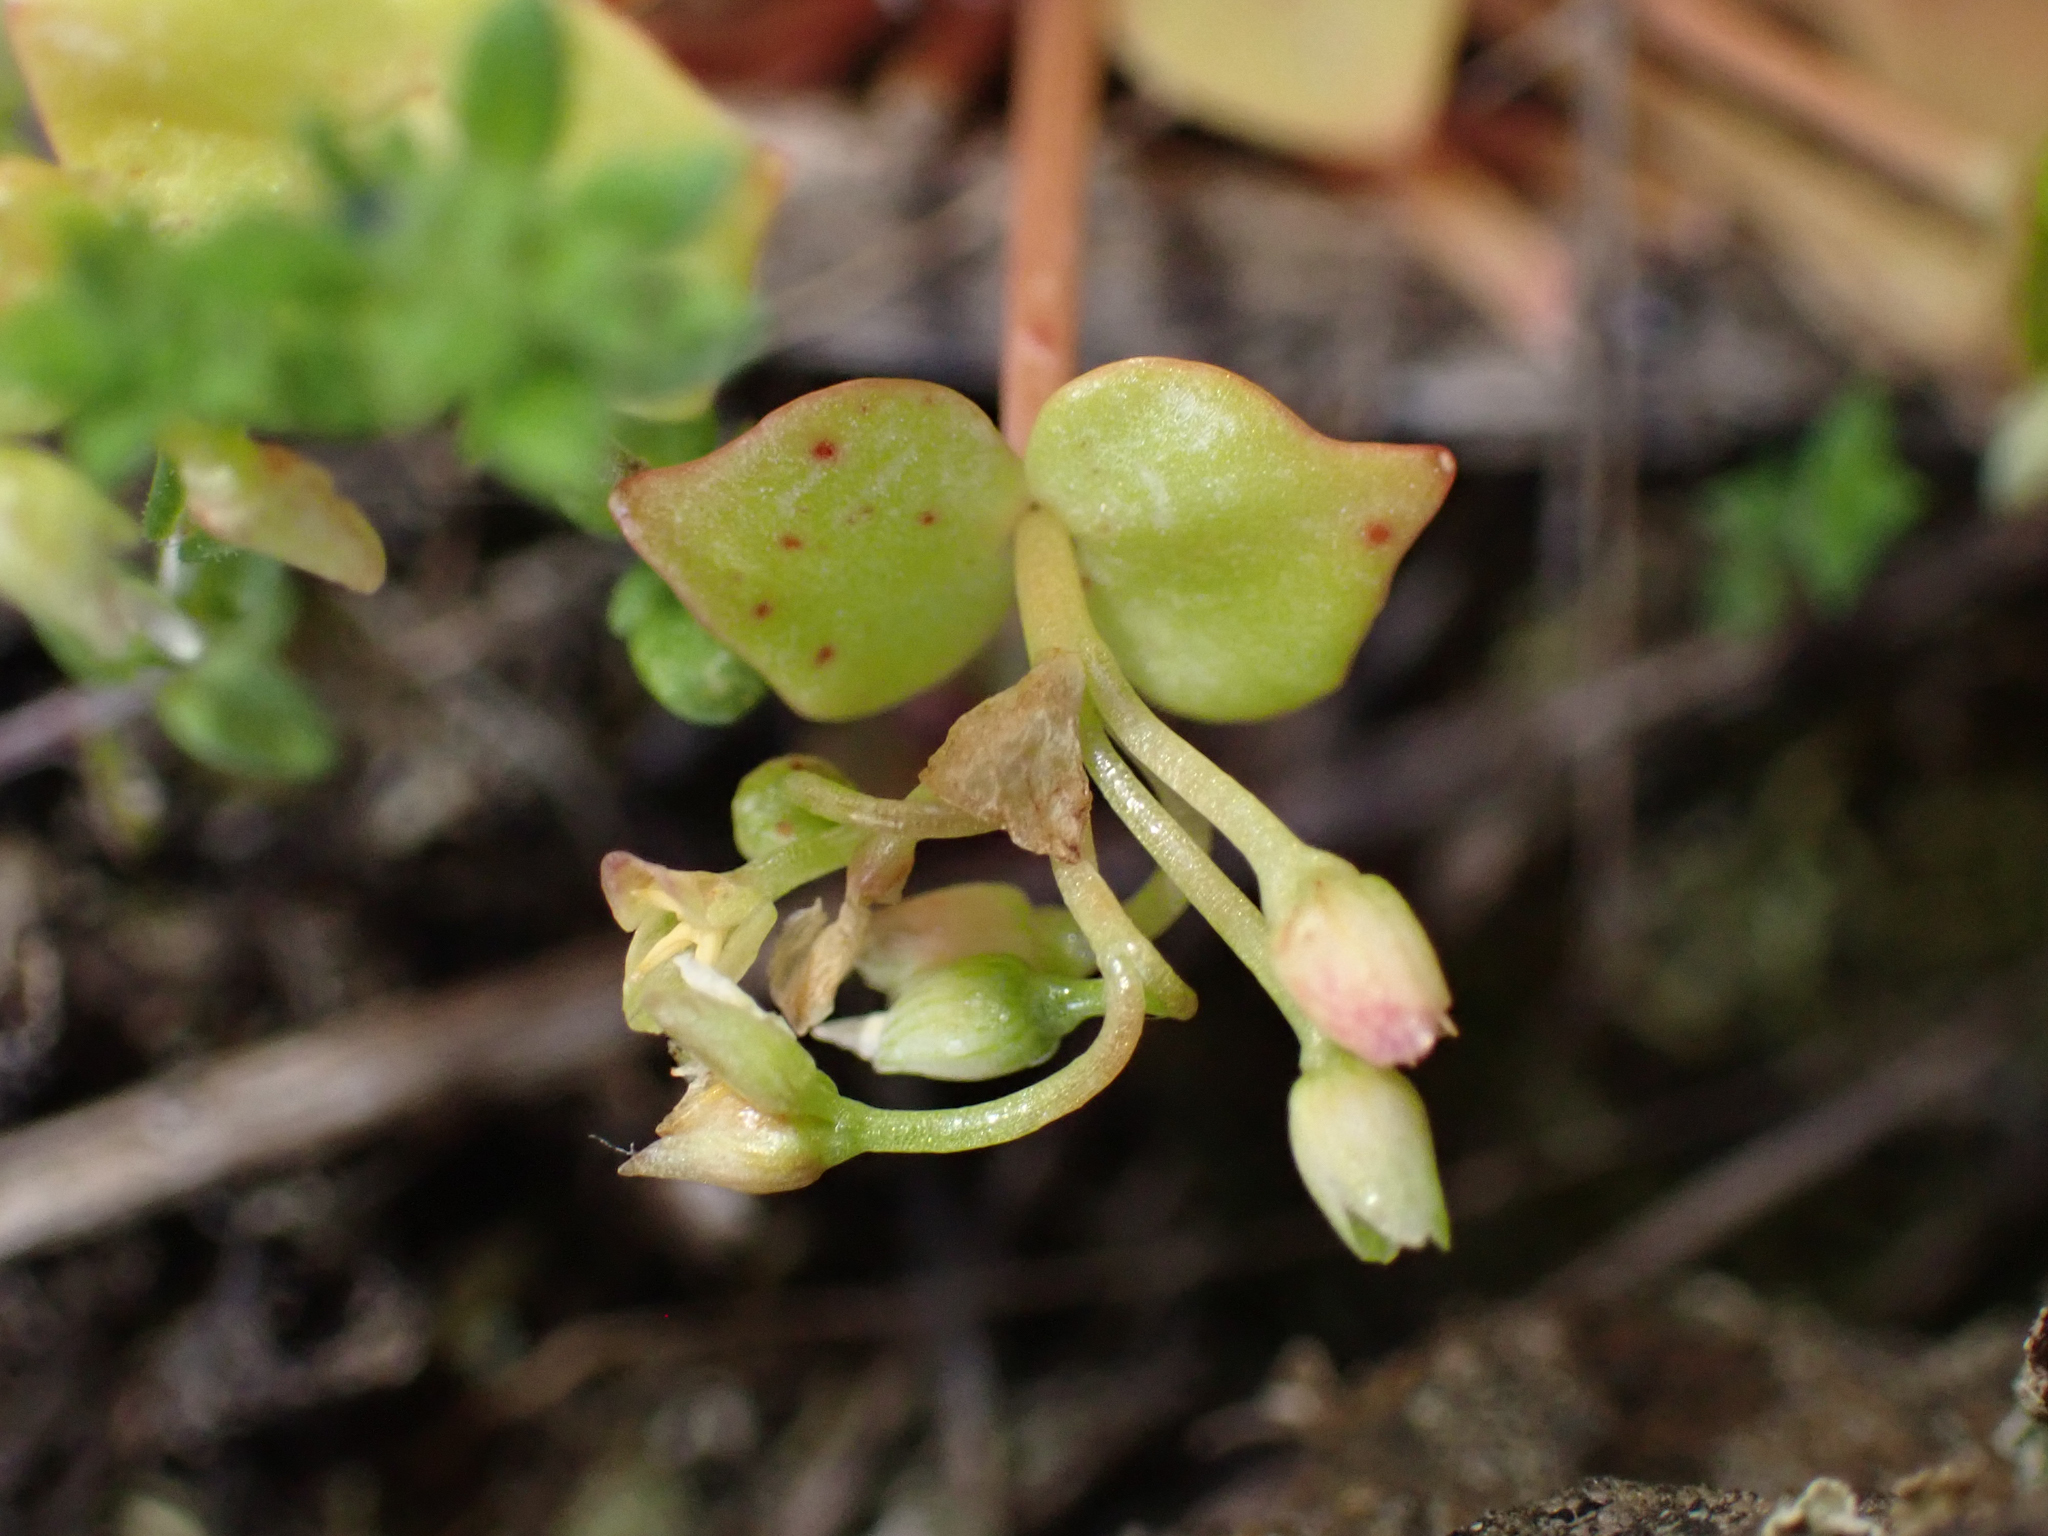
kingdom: Plantae
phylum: Tracheophyta
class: Magnoliopsida
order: Caryophyllales
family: Montiaceae
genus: Claytonia
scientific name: Claytonia rubra
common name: Erubescent miner's-lettuce
